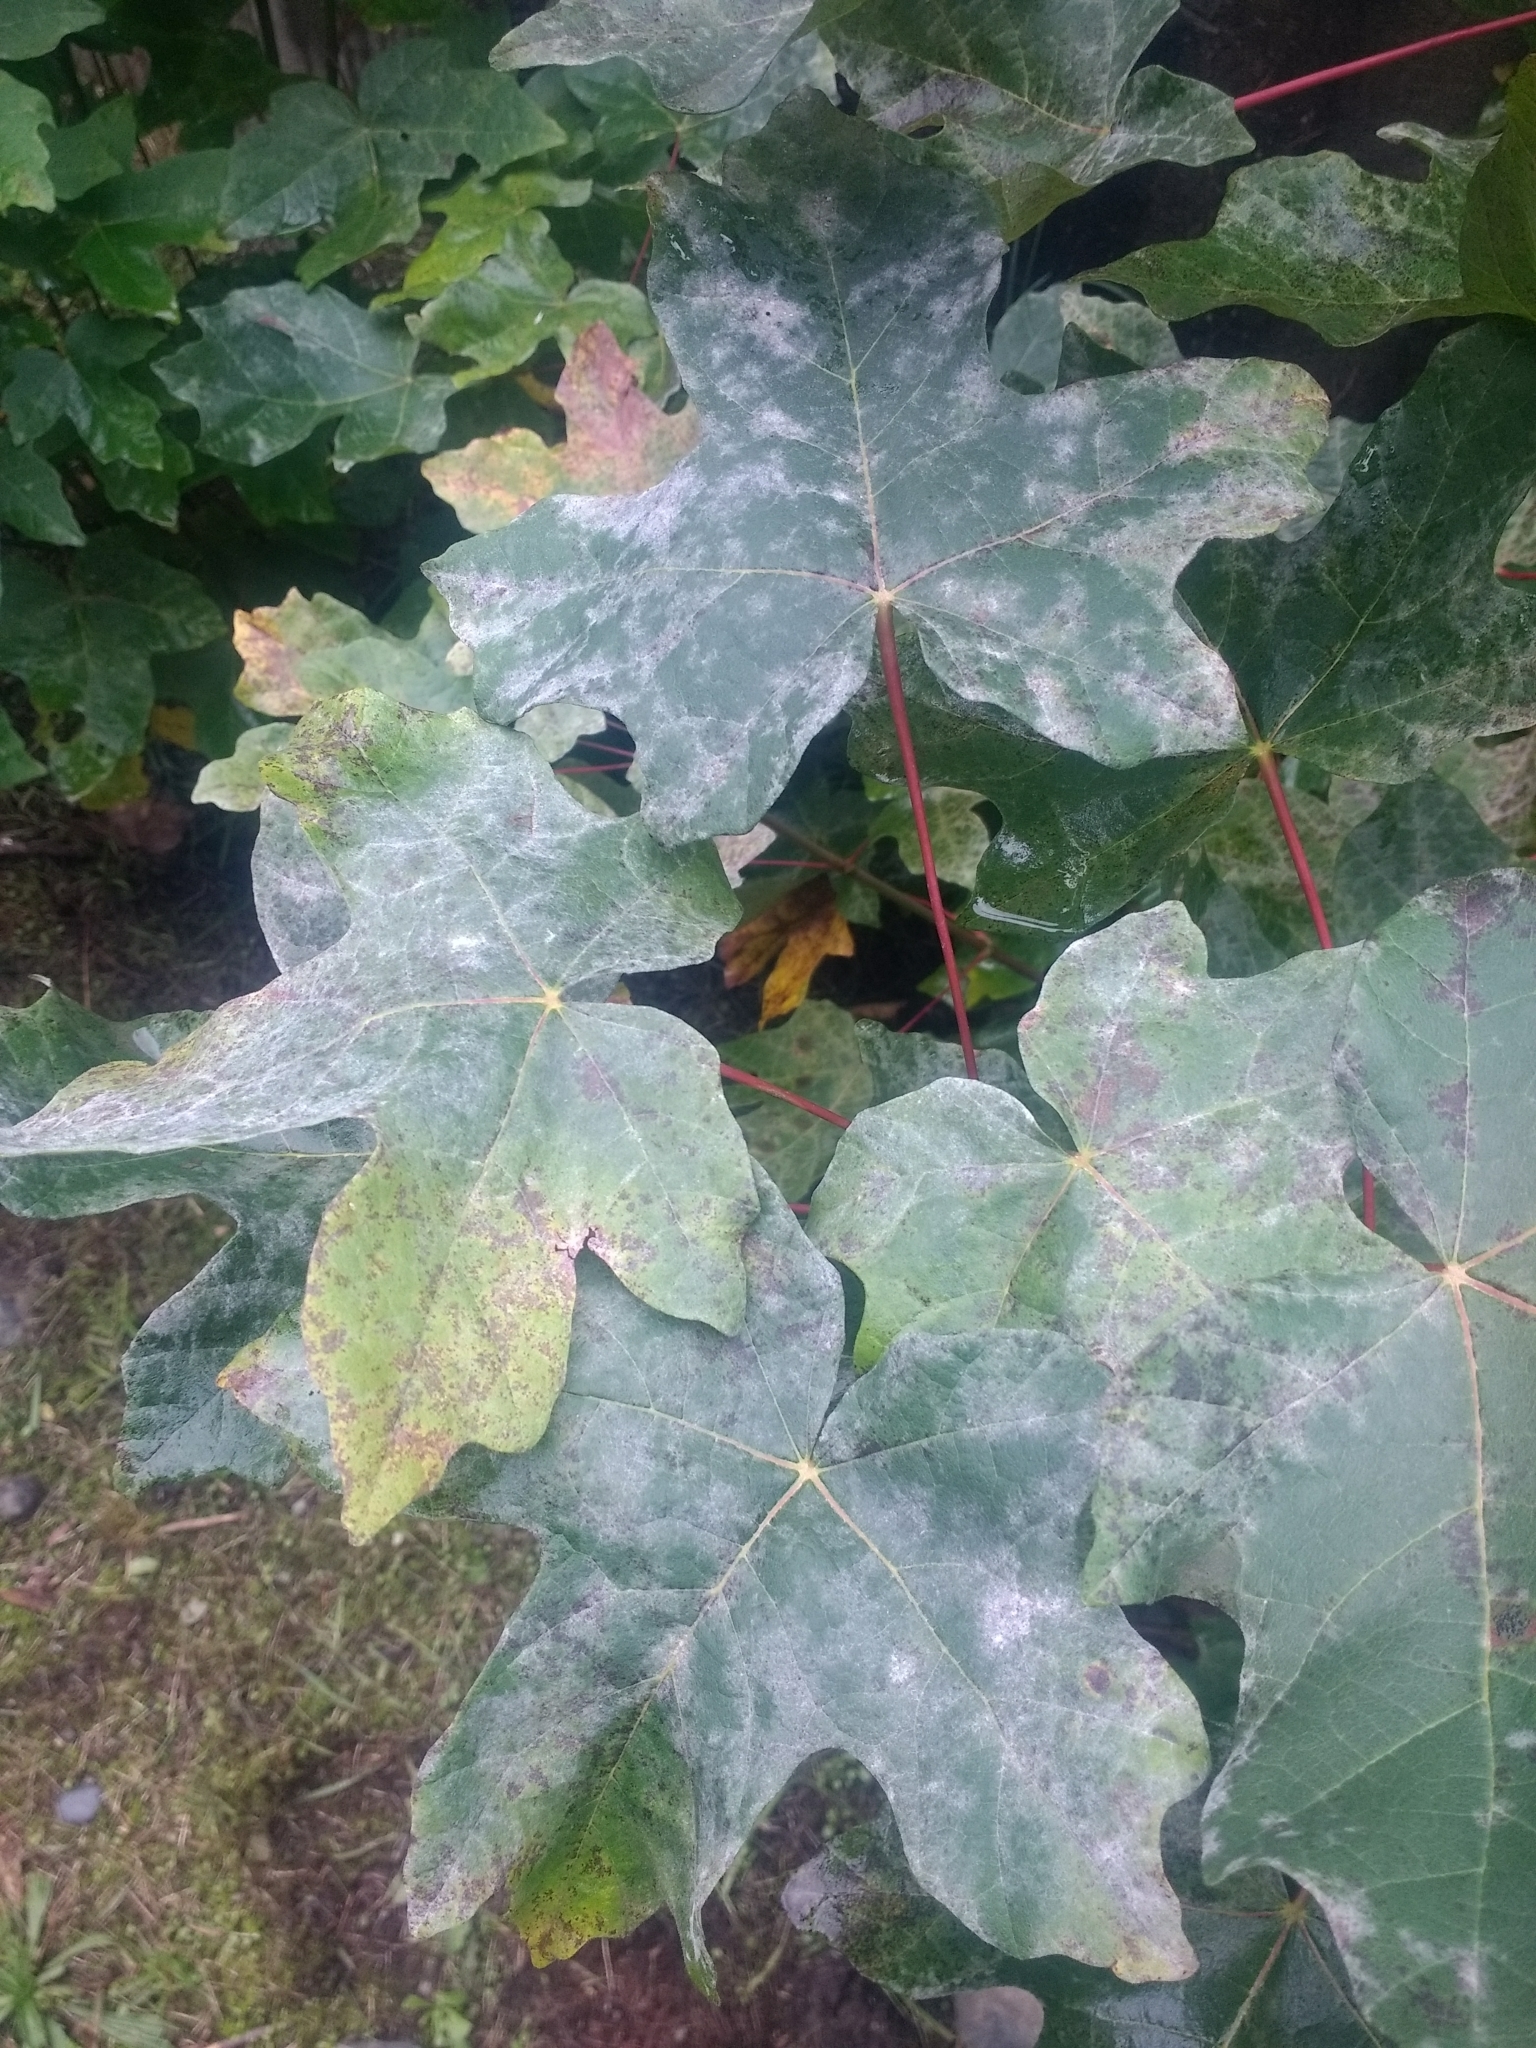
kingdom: Fungi
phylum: Ascomycota
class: Leotiomycetes
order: Helotiales
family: Erysiphaceae
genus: Sawadaea
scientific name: Sawadaea bicornis
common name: Maple mildew
